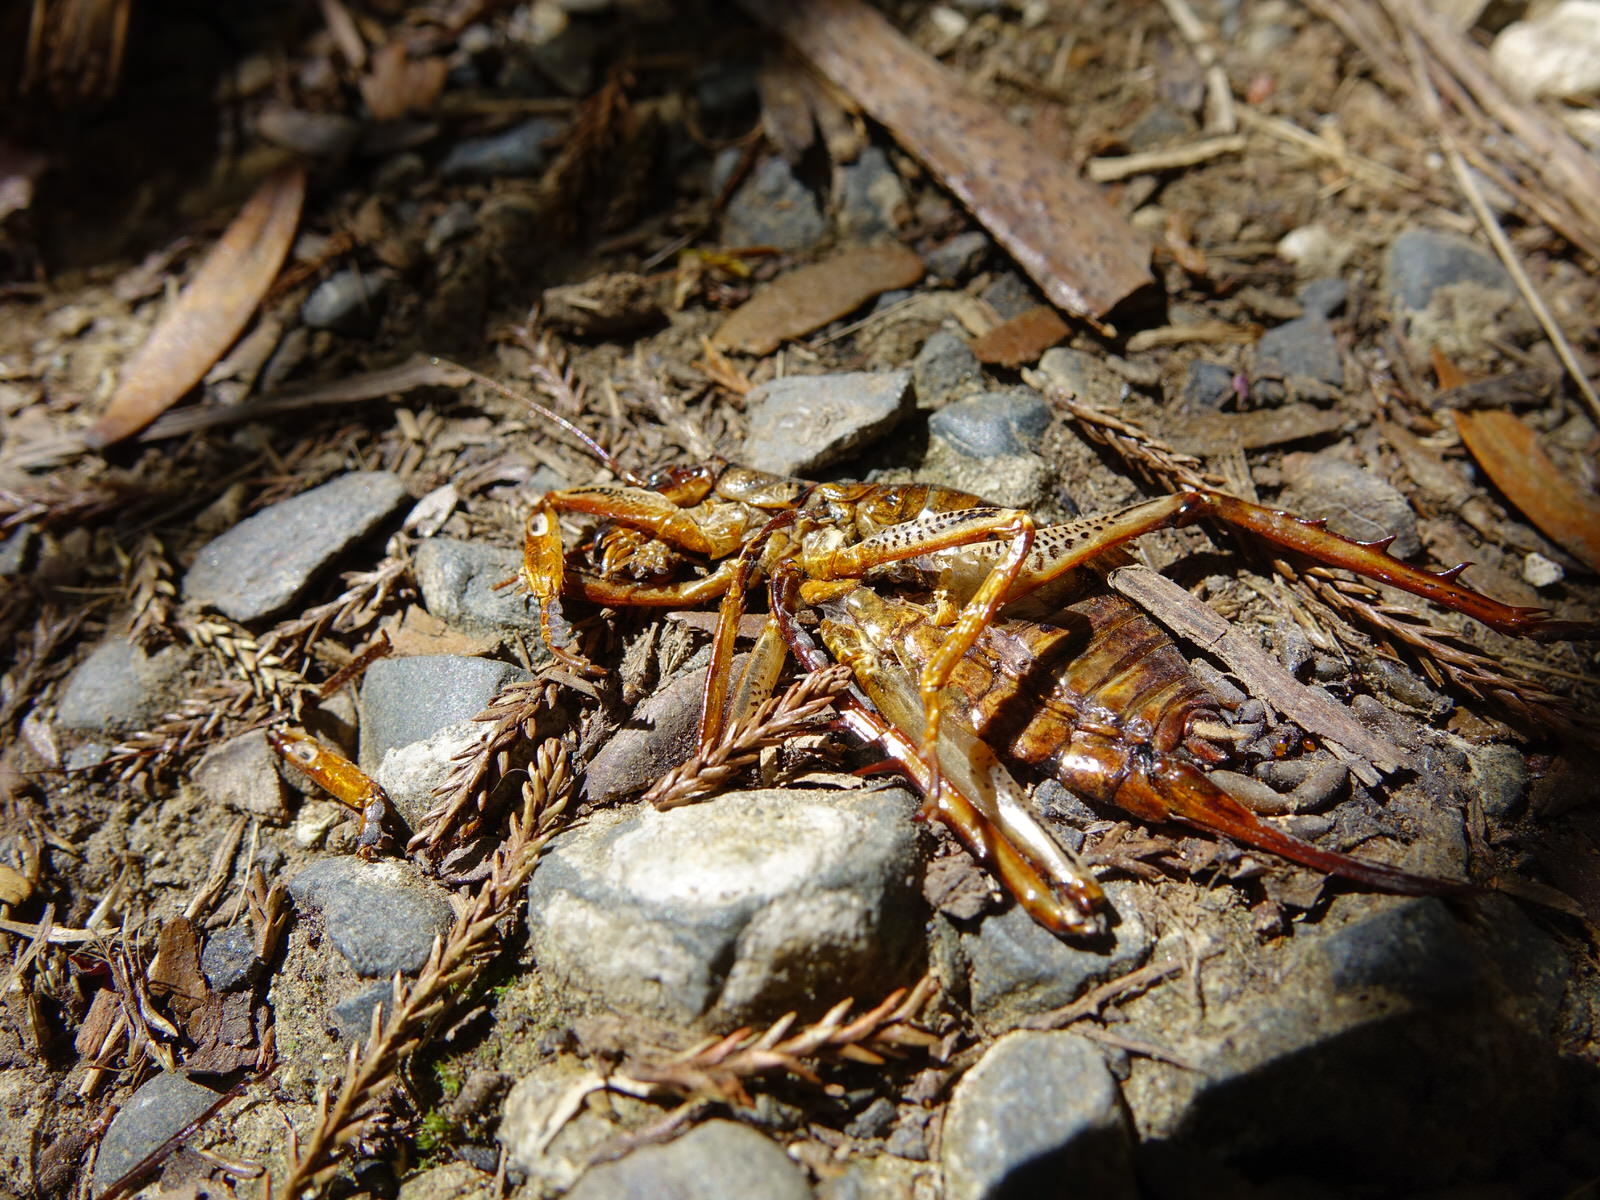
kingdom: Animalia
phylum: Arthropoda
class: Insecta
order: Orthoptera
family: Anostostomatidae
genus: Hemideina
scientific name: Hemideina thoracica
